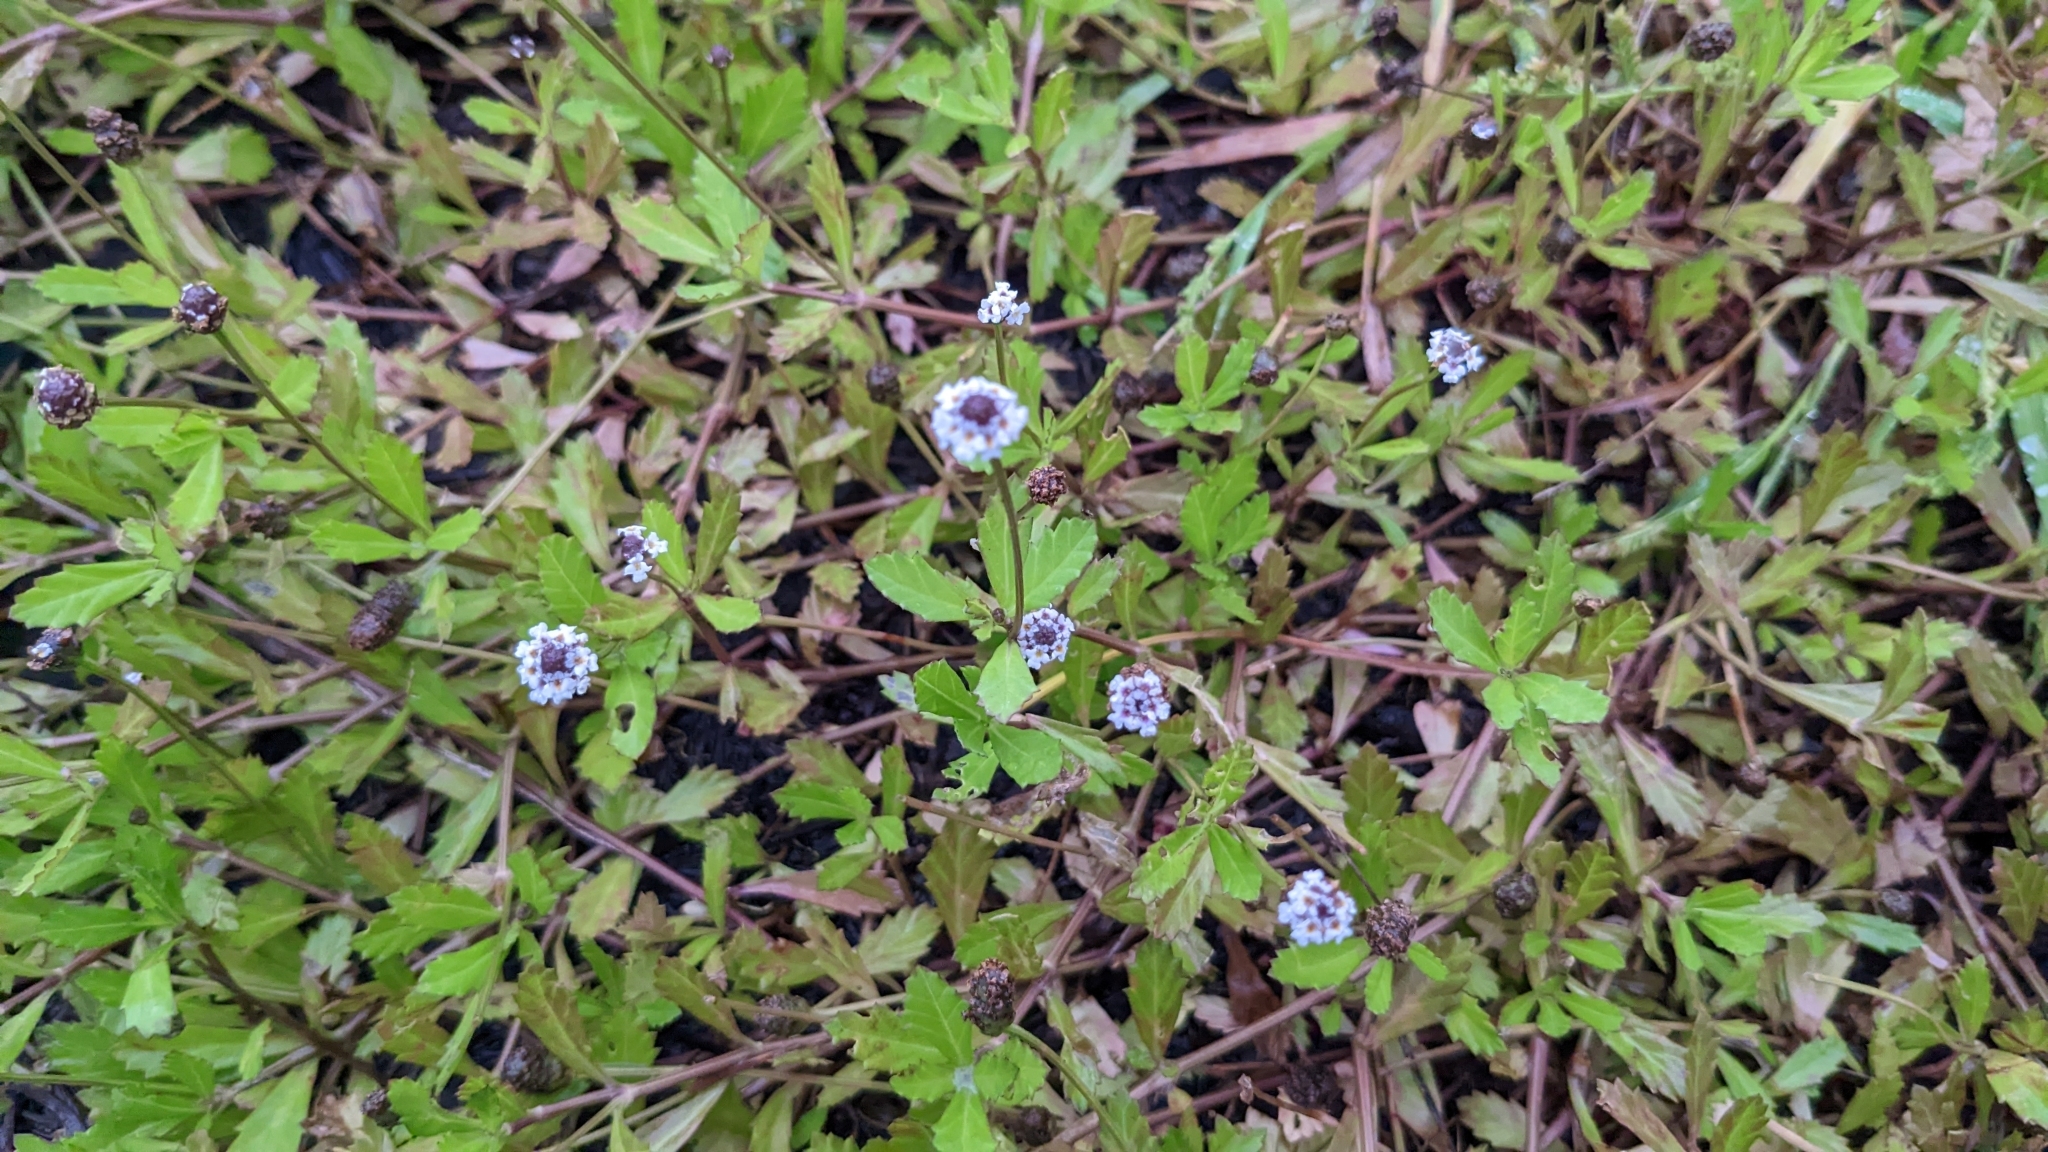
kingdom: Plantae
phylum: Tracheophyta
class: Magnoliopsida
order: Lamiales
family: Verbenaceae
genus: Phyla
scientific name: Phyla nodiflora
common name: Frogfruit
